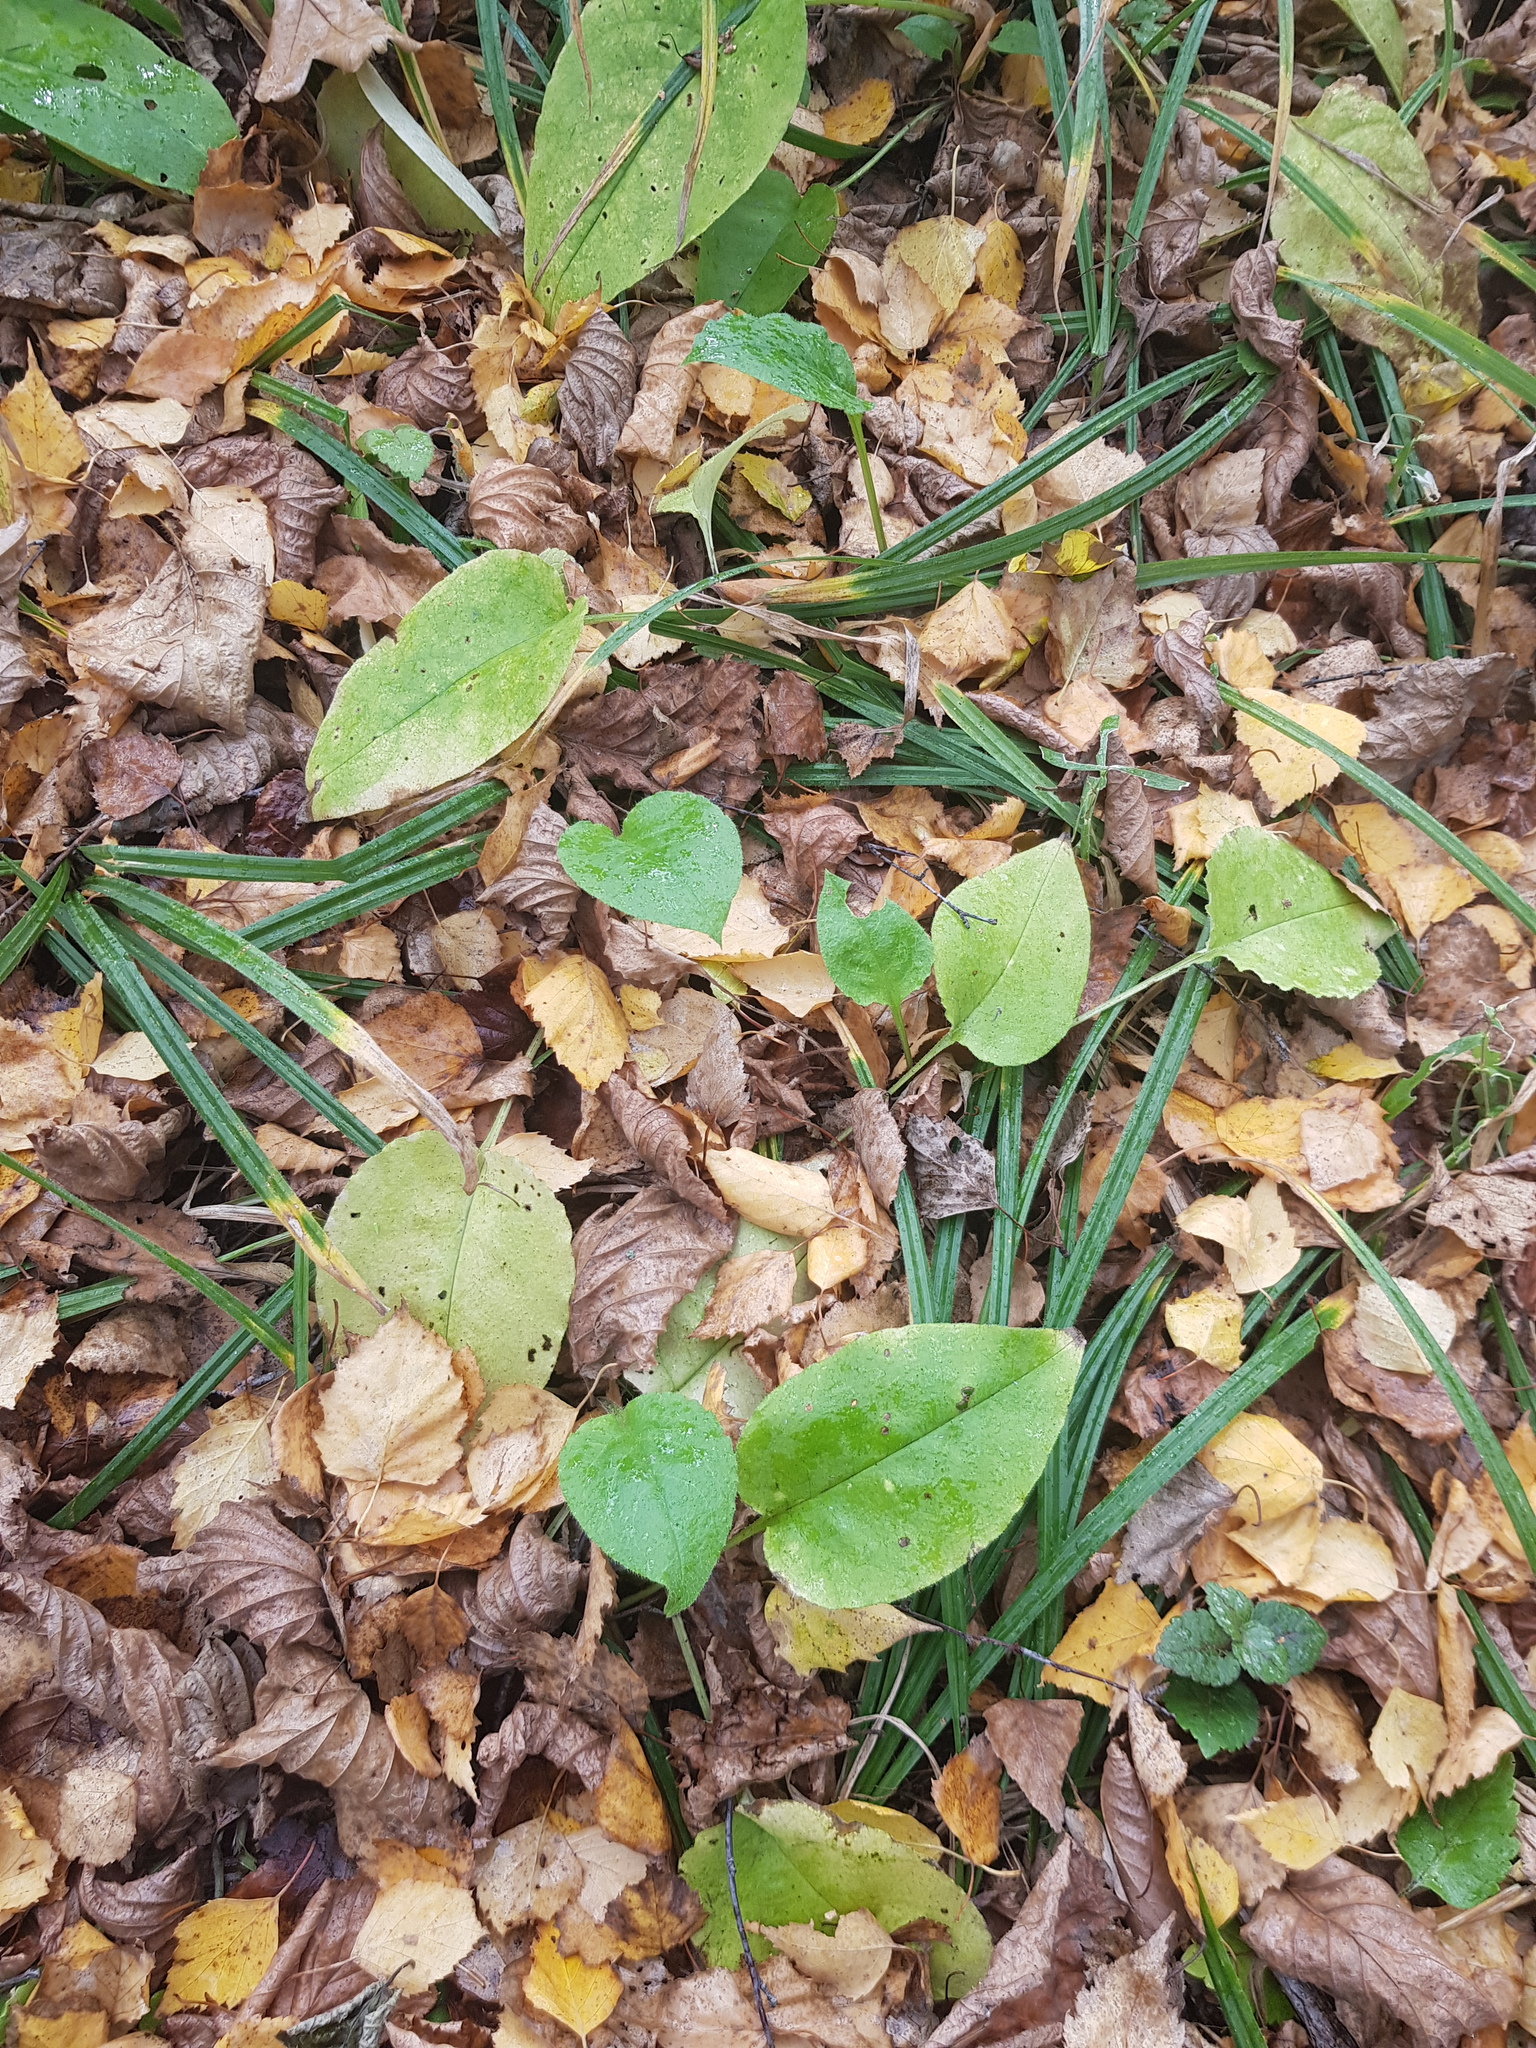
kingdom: Plantae
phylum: Tracheophyta
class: Magnoliopsida
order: Boraginales
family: Boraginaceae
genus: Pulmonaria
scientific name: Pulmonaria obscura
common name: Suffolk lungwort
